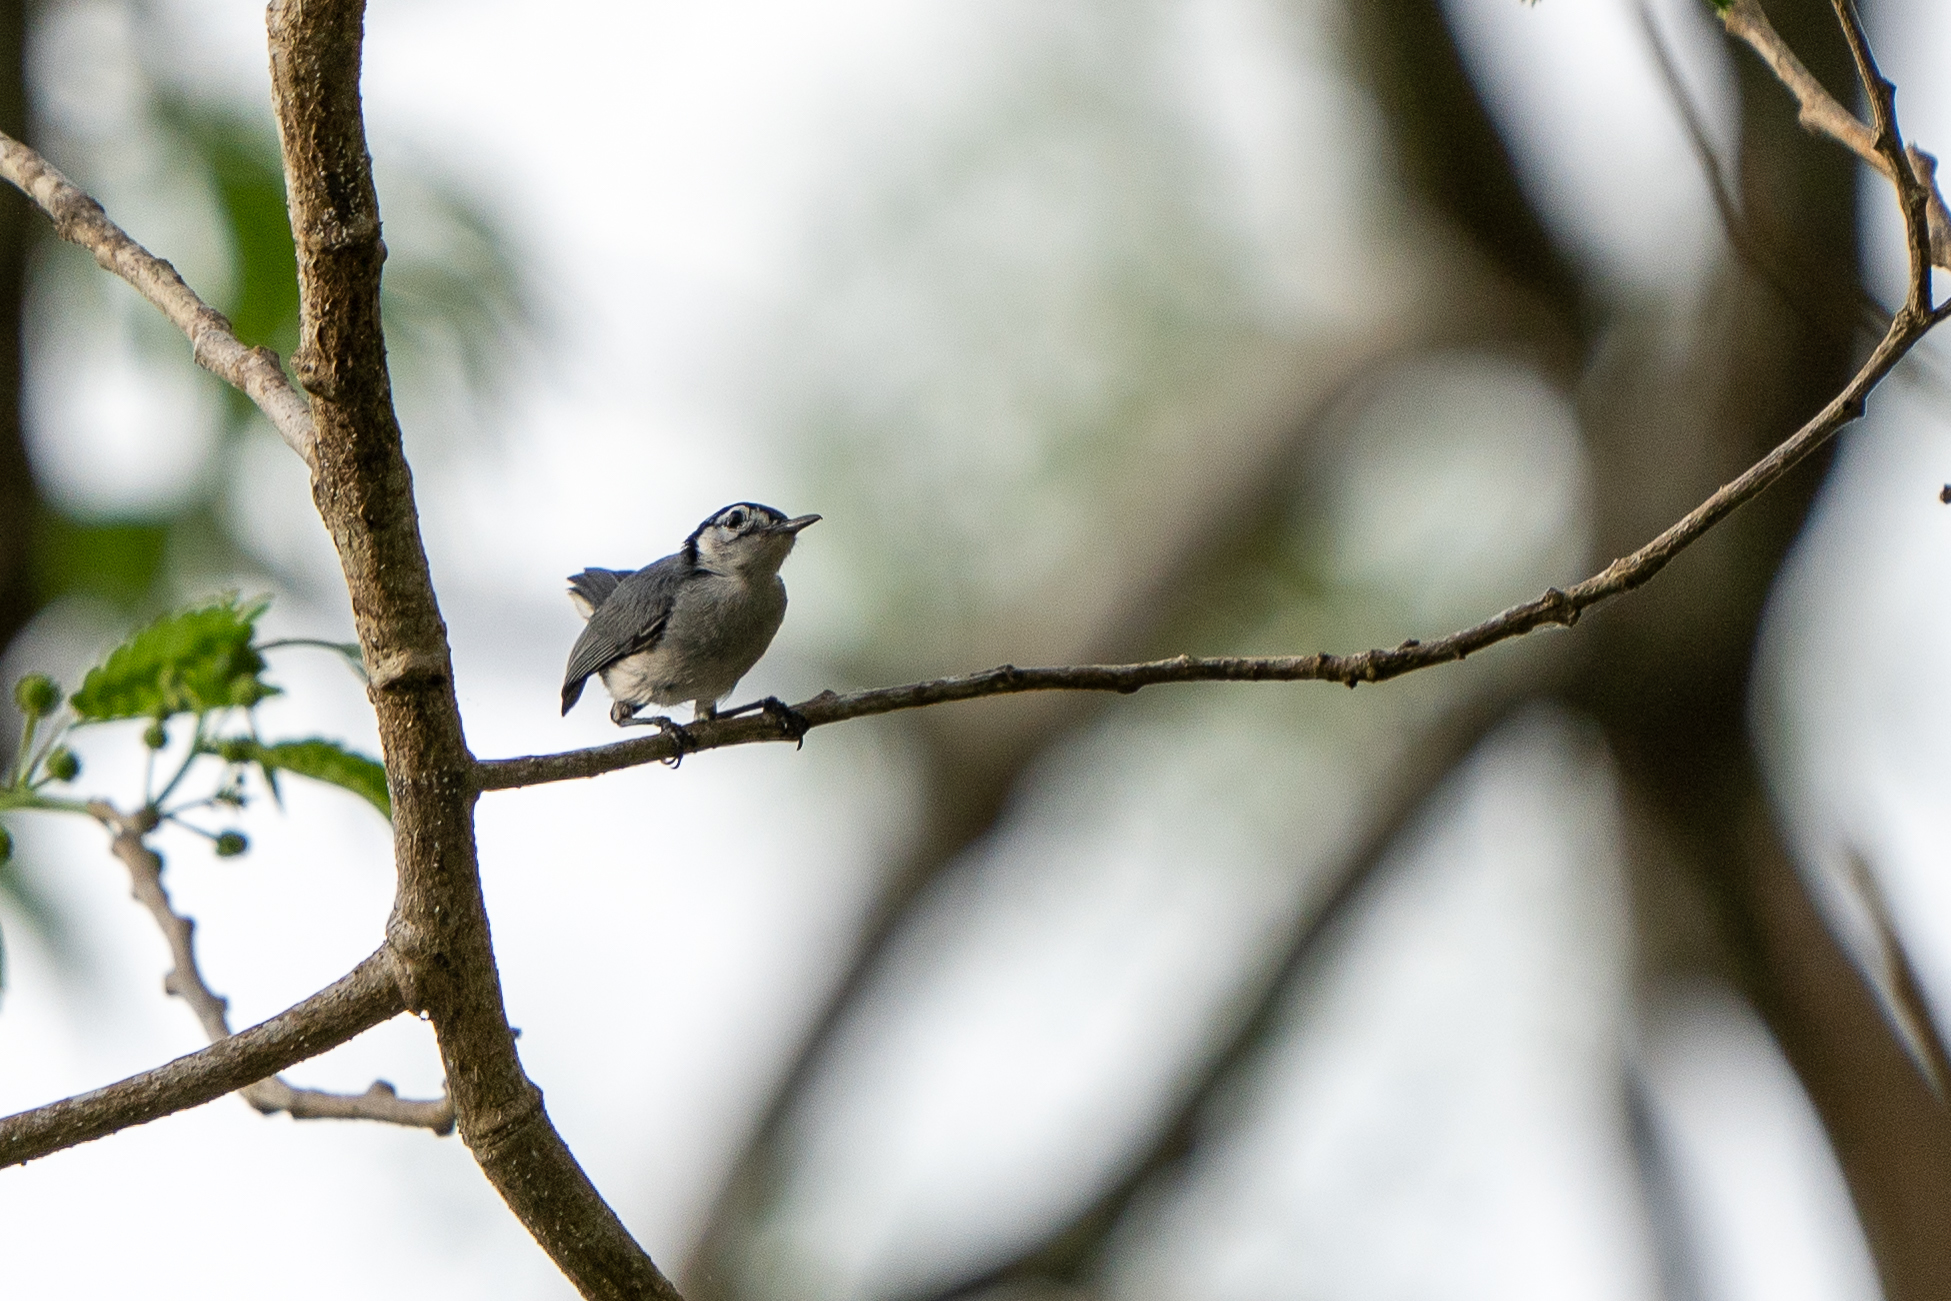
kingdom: Animalia
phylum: Chordata
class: Aves
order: Passeriformes
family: Polioptilidae
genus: Polioptila
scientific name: Polioptila plumbea
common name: Tropical gnatcatcher
